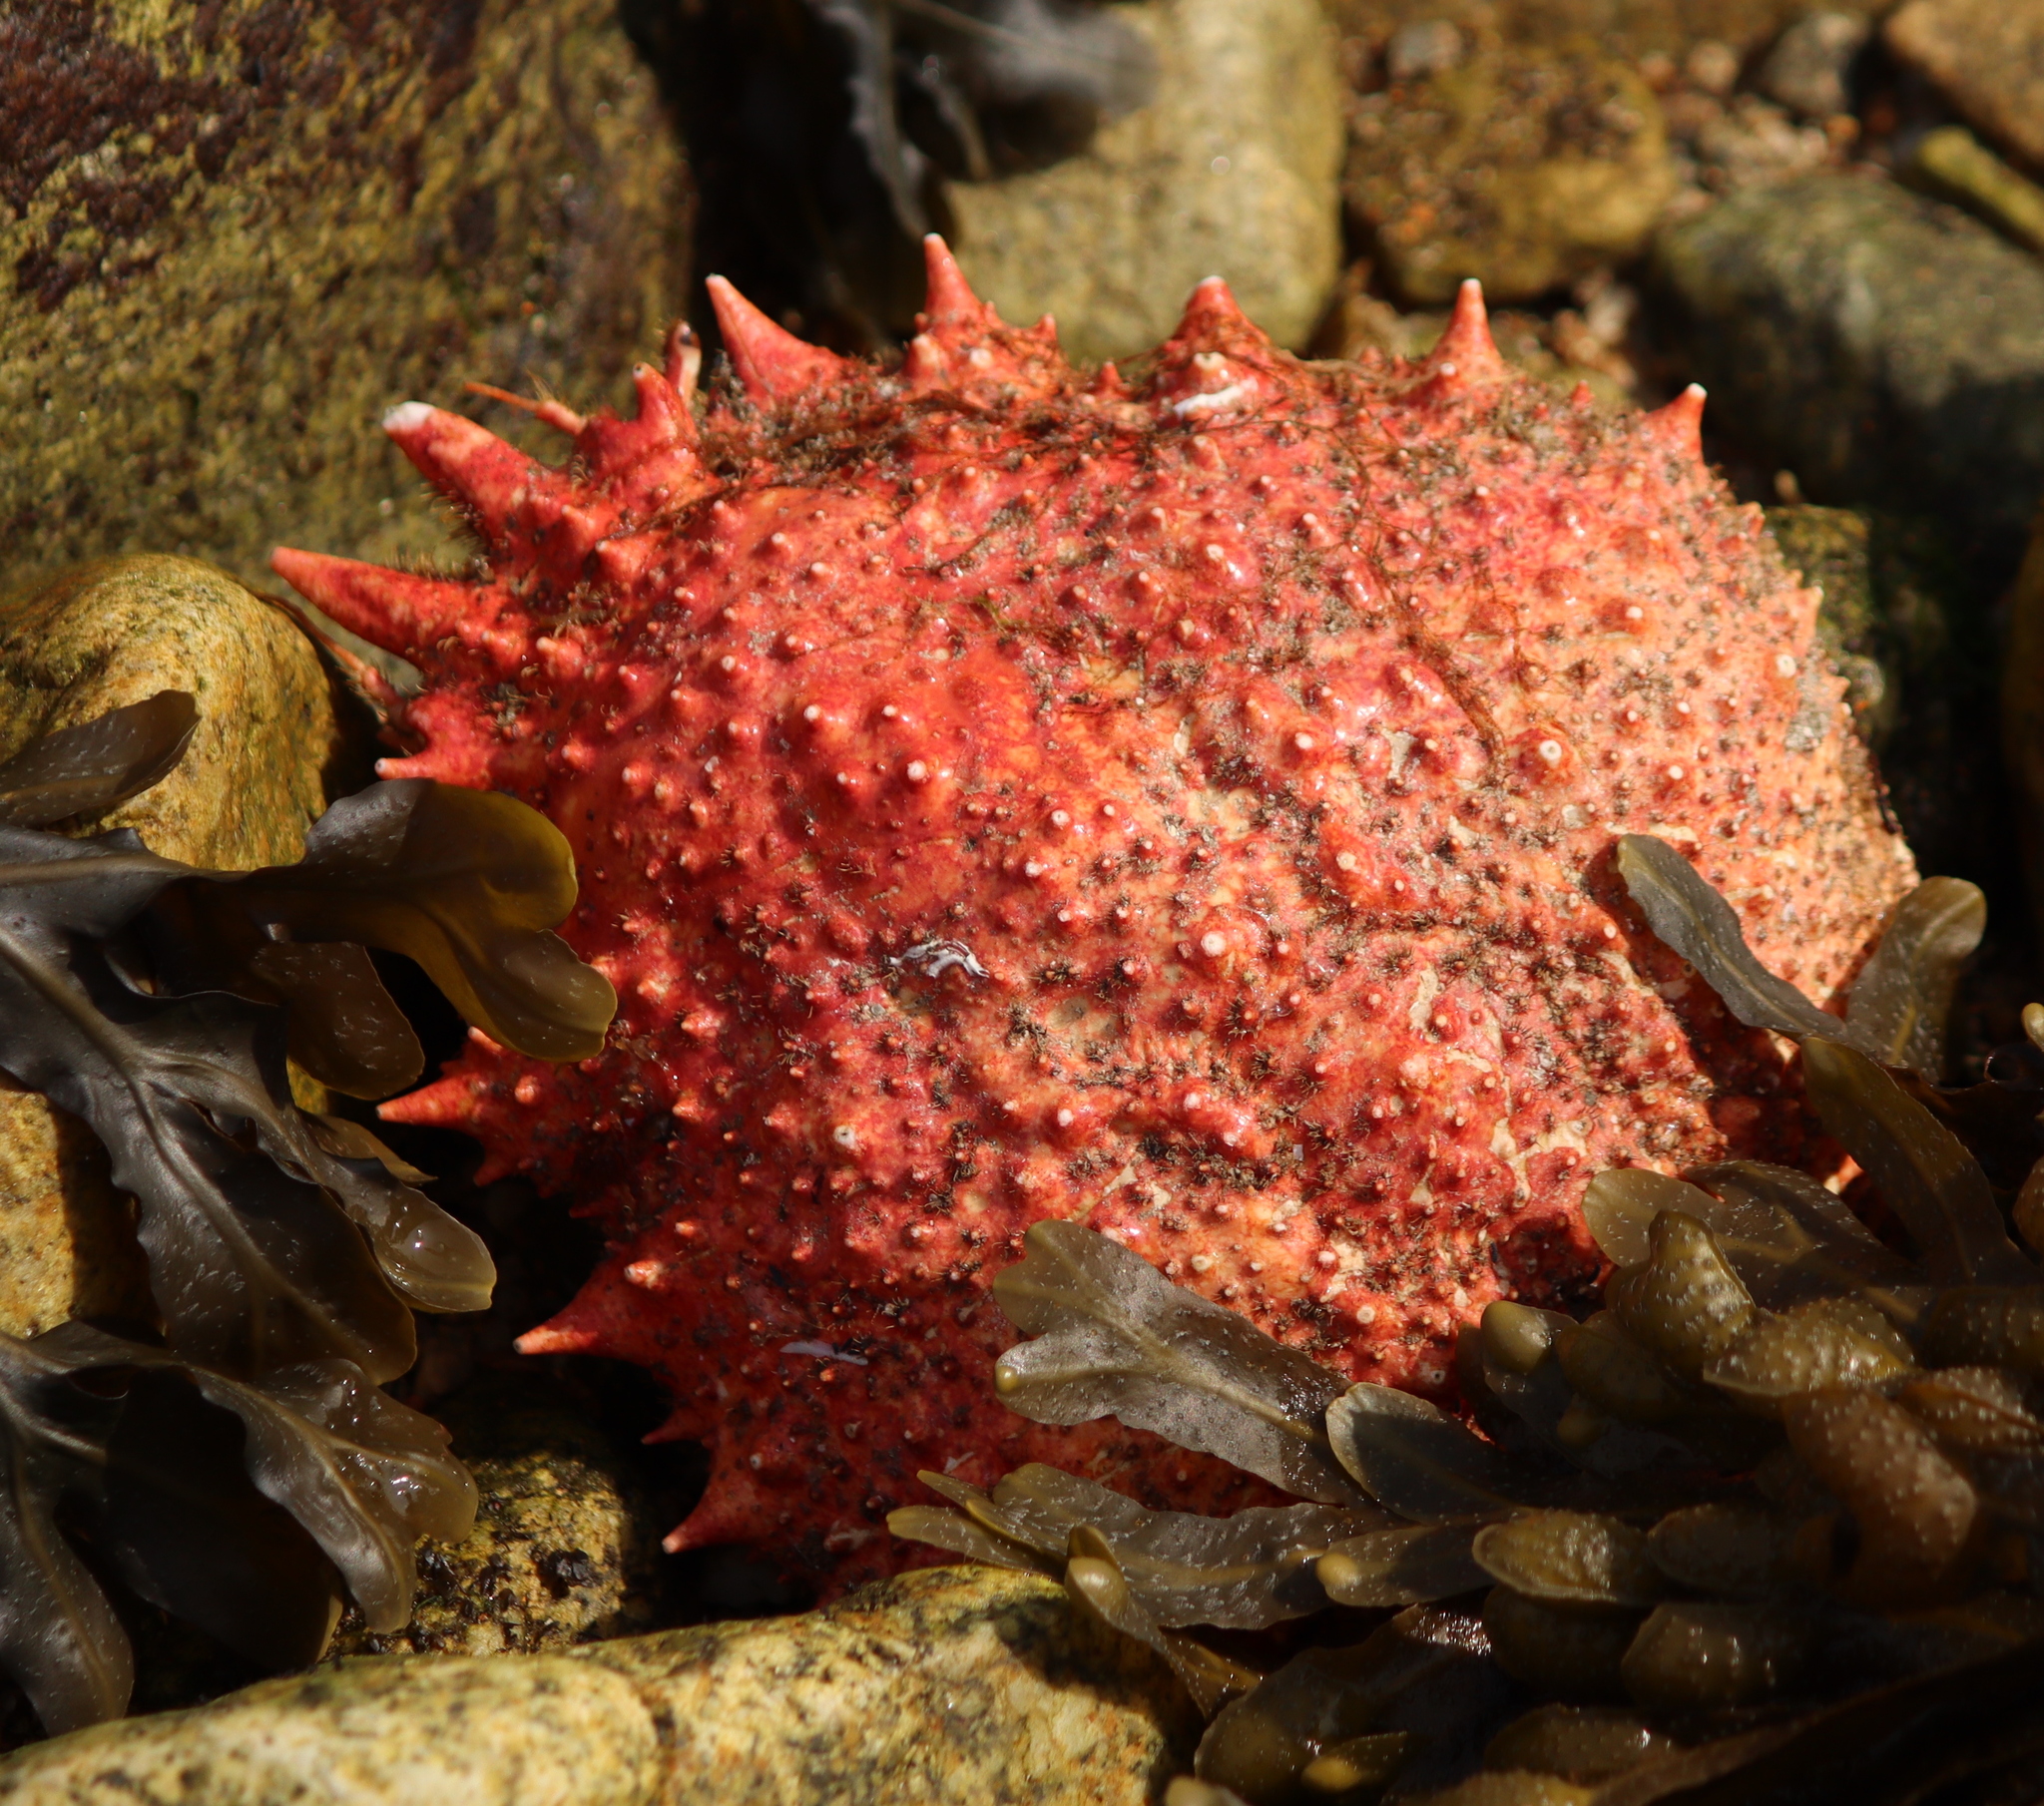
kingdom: Animalia
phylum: Arthropoda
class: Malacostraca
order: Decapoda
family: Majidae
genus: Maja
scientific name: Maja brachydactyla
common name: Common spider crab
